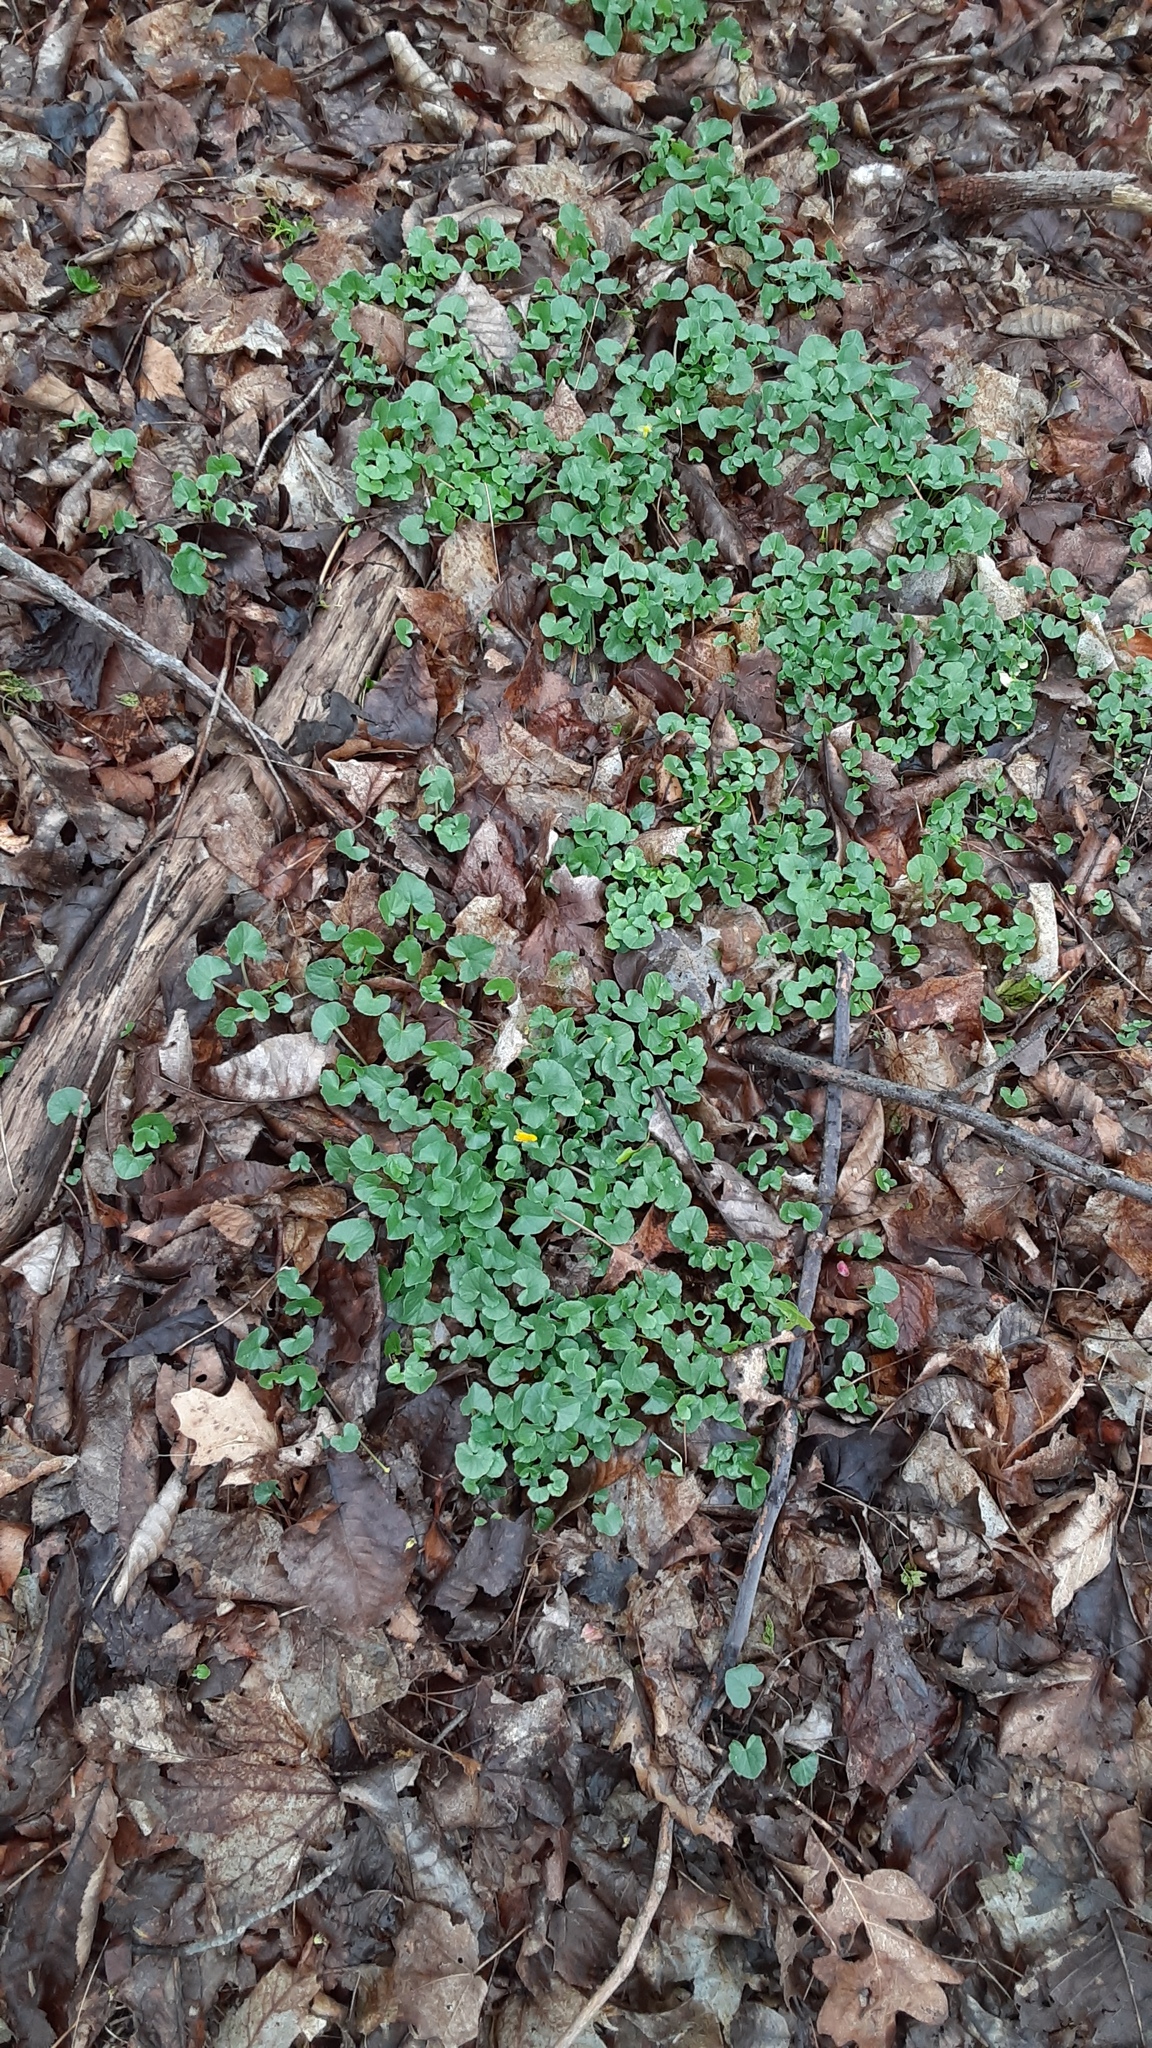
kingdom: Plantae
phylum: Tracheophyta
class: Magnoliopsida
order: Ranunculales
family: Ranunculaceae
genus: Ficaria
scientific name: Ficaria verna
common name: Lesser celandine
